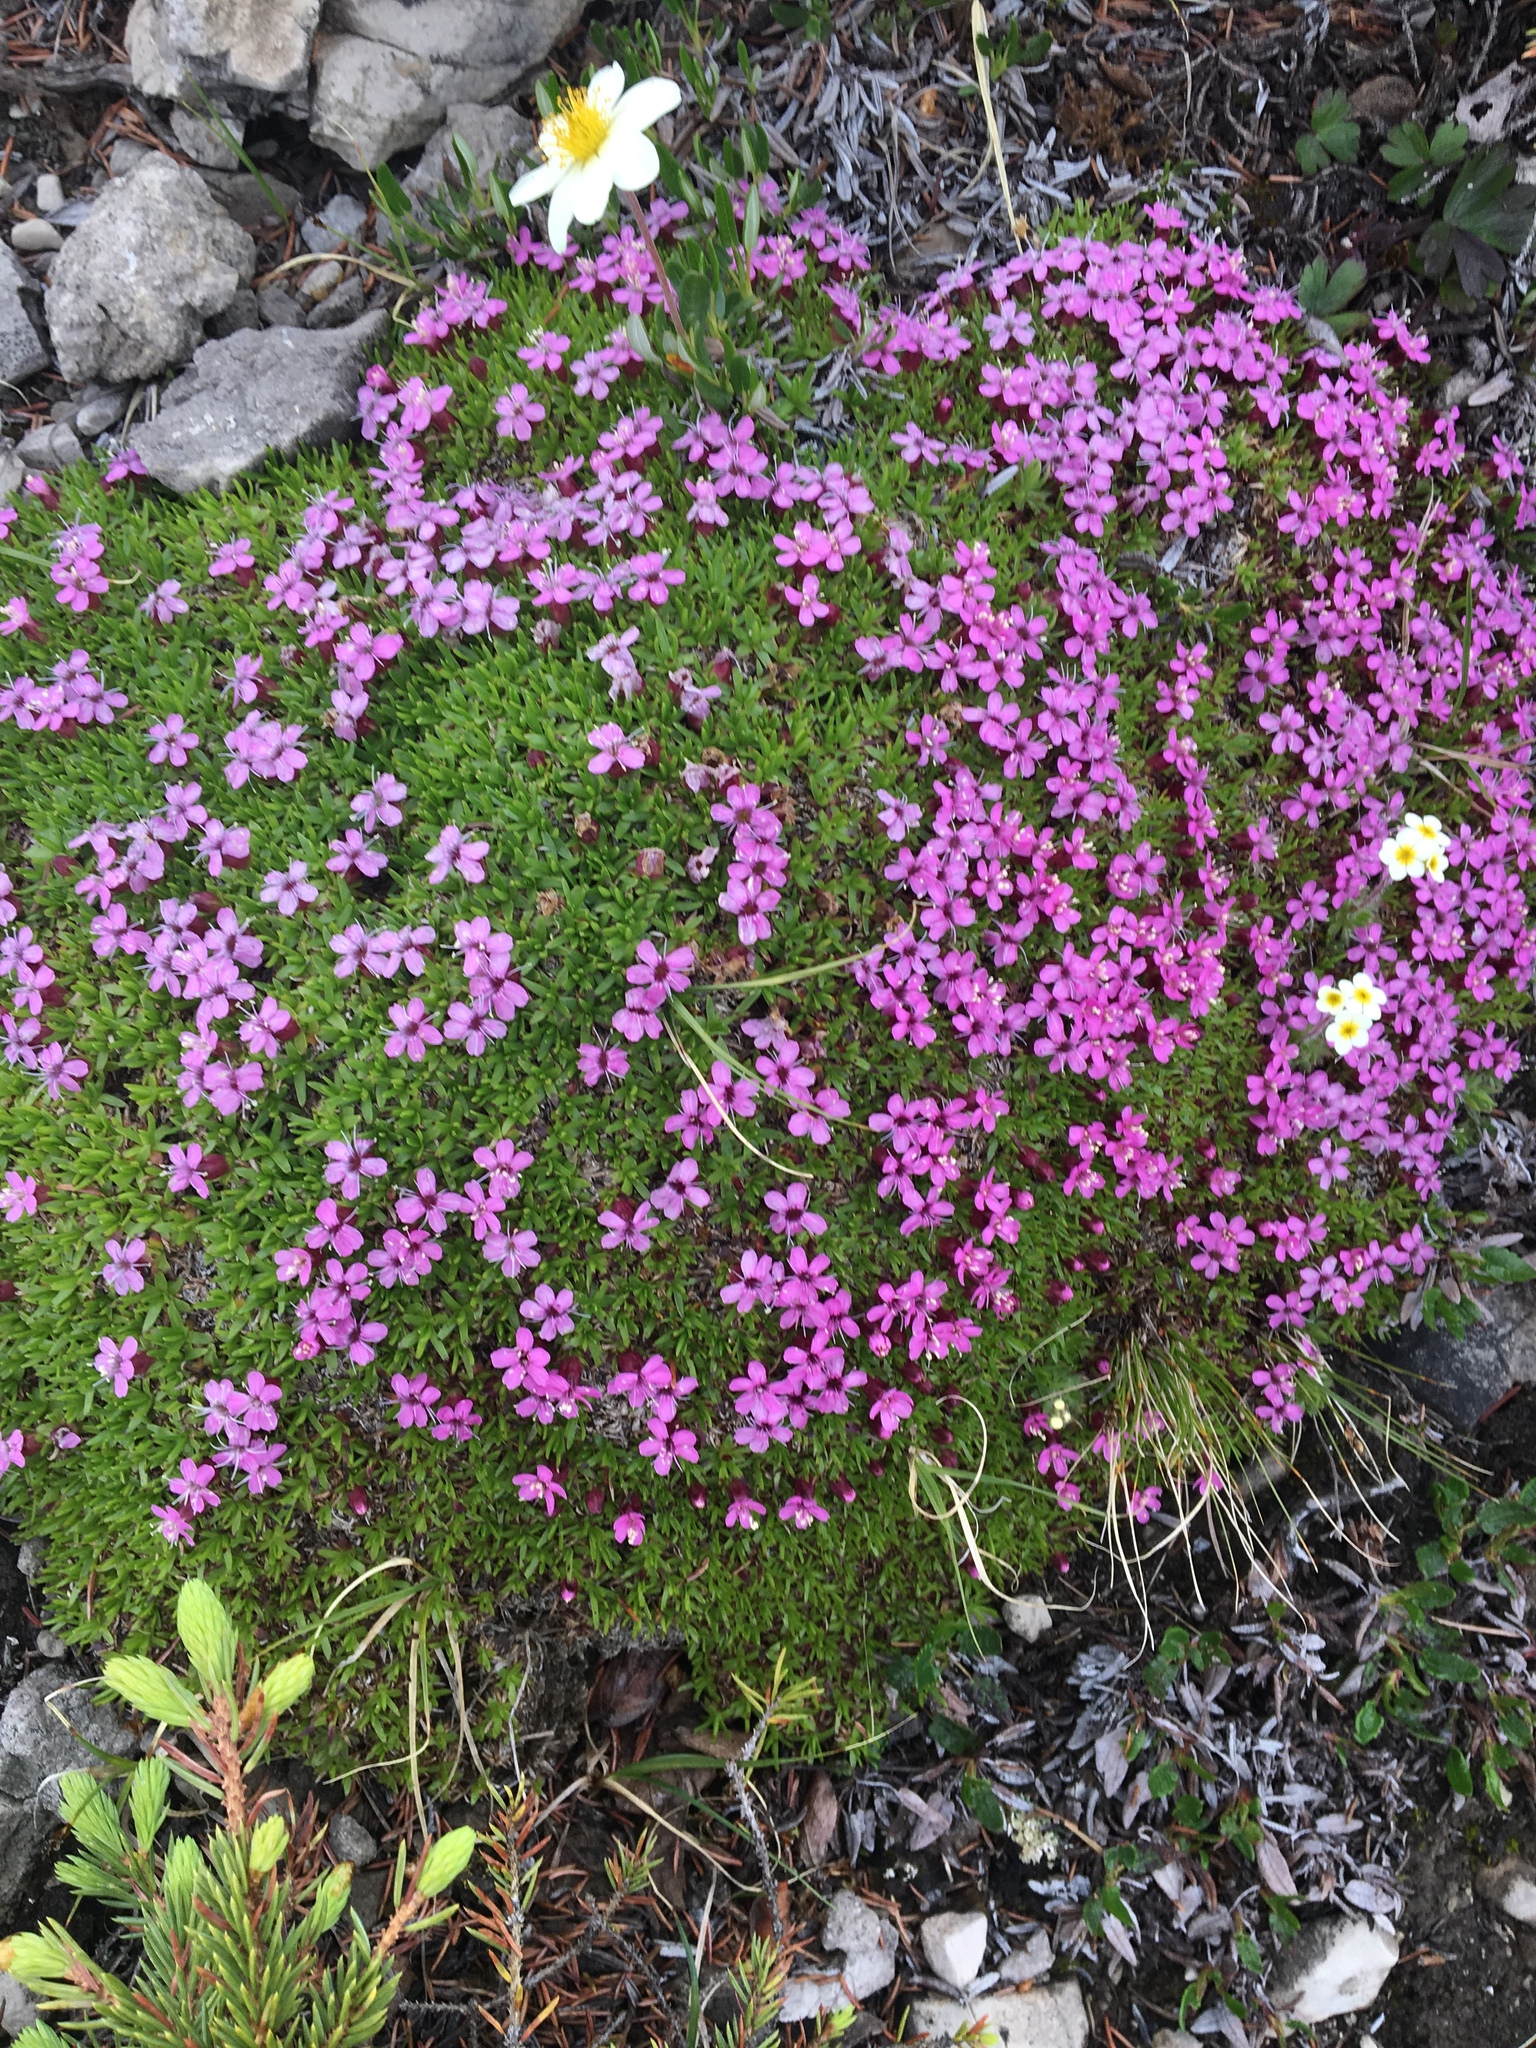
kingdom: Plantae
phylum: Tracheophyta
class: Magnoliopsida
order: Caryophyllales
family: Caryophyllaceae
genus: Silene
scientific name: Silene acaulis
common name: Moss campion
